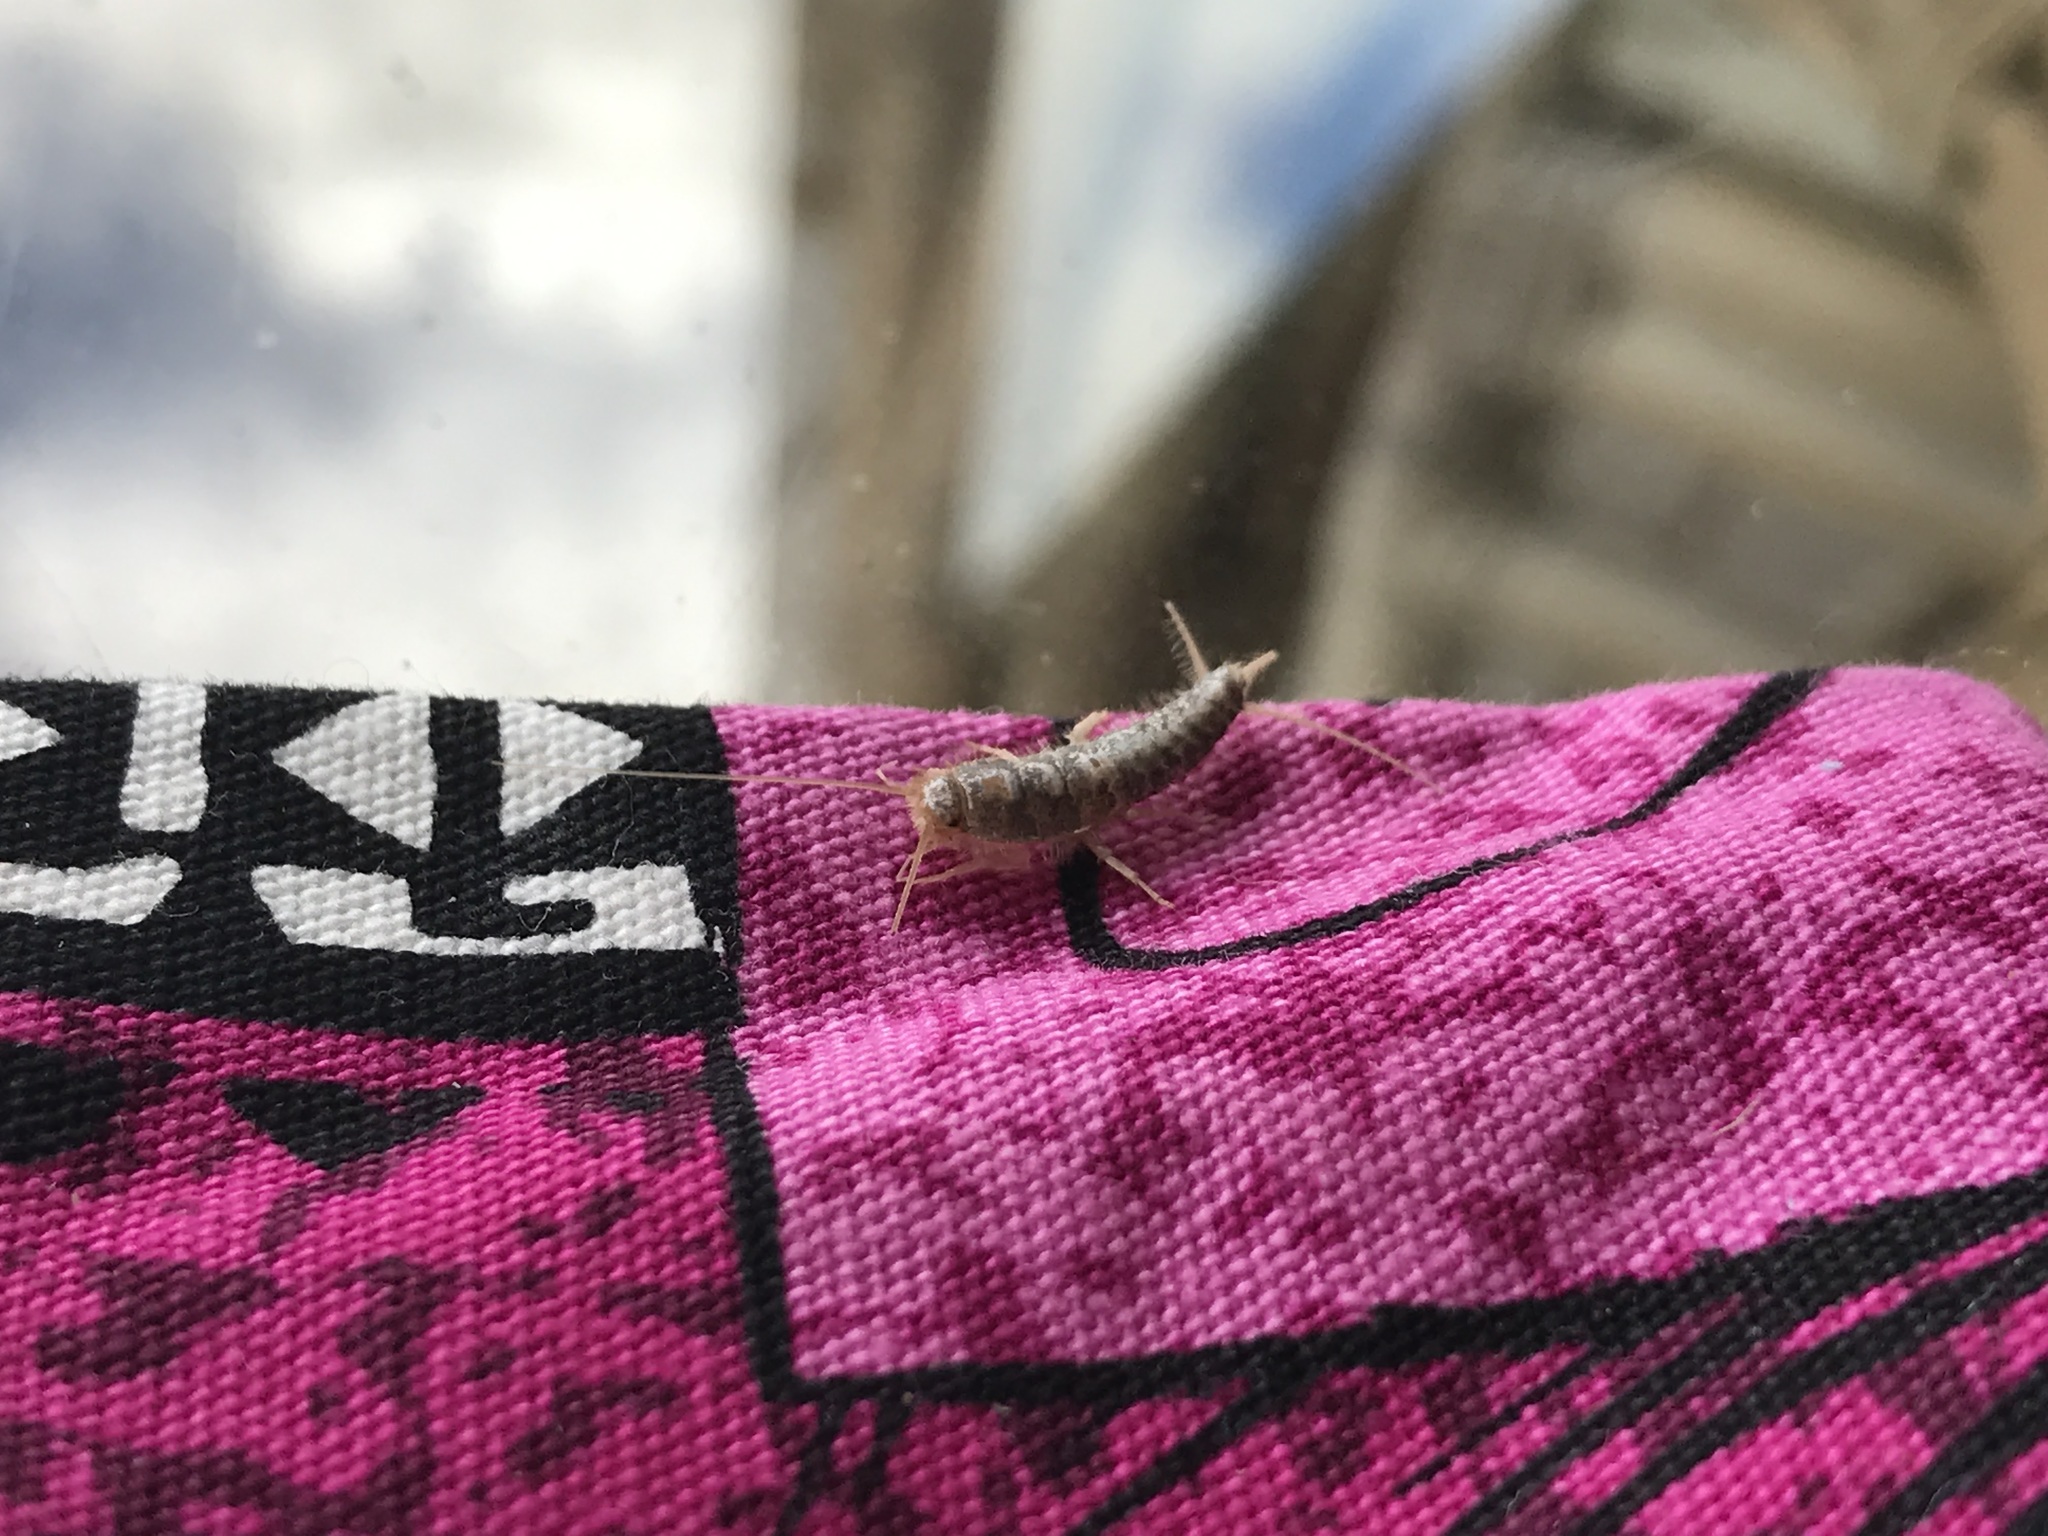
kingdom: Animalia
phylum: Arthropoda
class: Insecta
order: Zygentoma
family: Lepismatidae
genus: Ctenolepisma
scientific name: Ctenolepisma longicaudatum
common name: Silverfish
